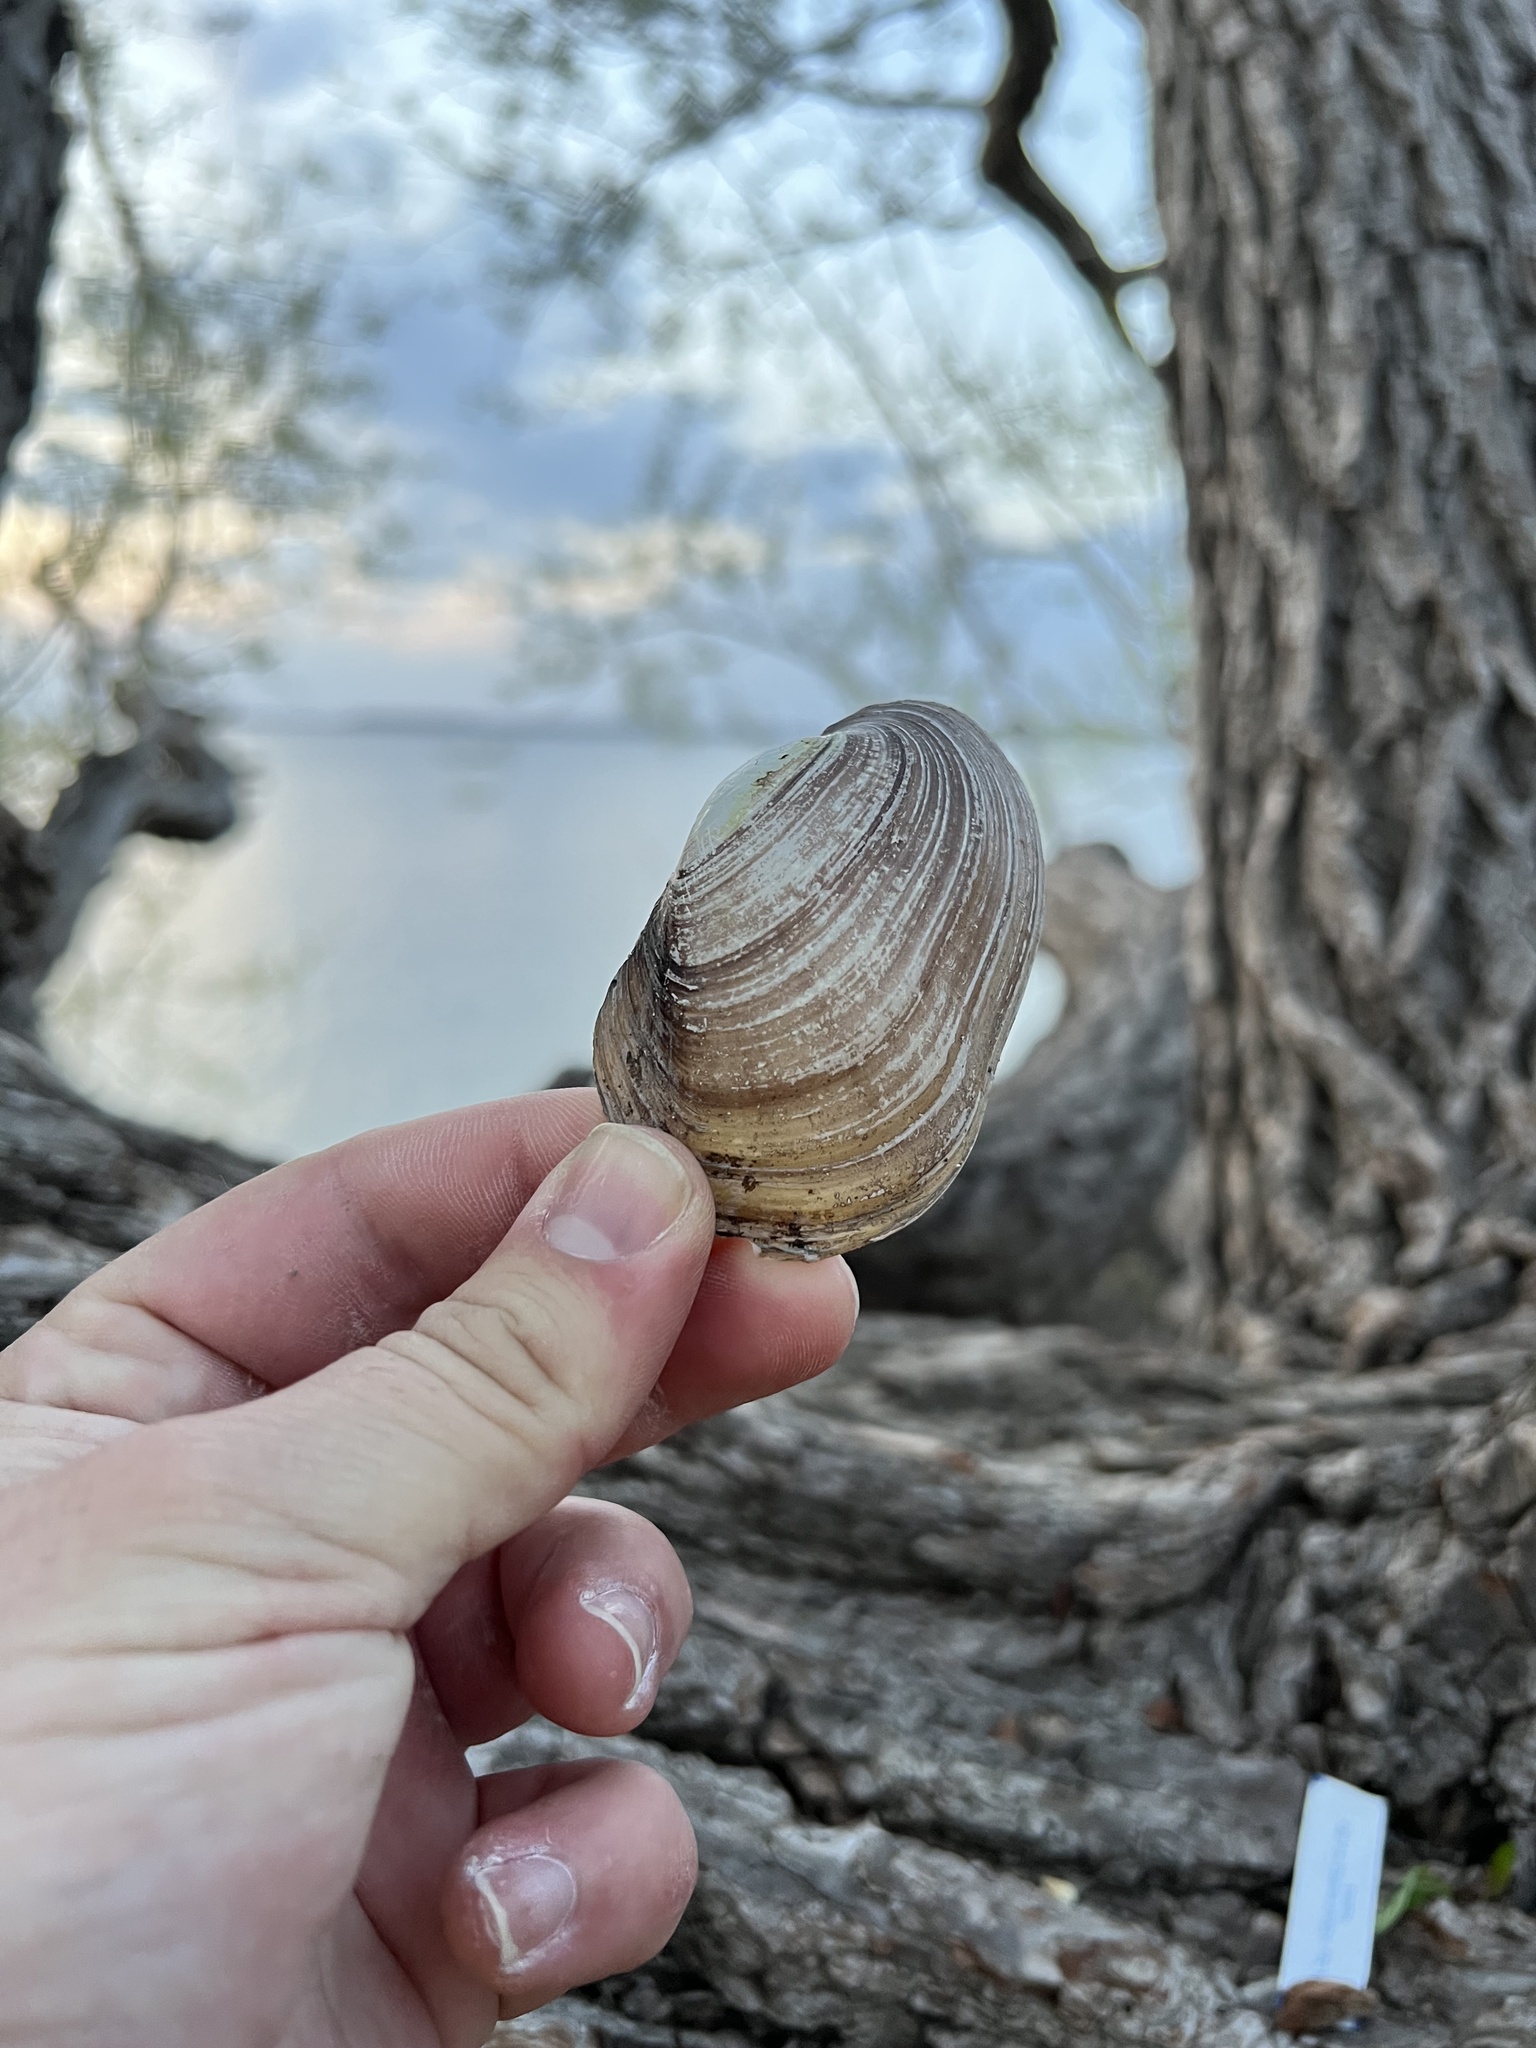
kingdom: Animalia
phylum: Mollusca
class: Bivalvia
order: Unionida
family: Unionidae
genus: Lampsilis
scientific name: Lampsilis siliquoidea
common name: Fatmucket
